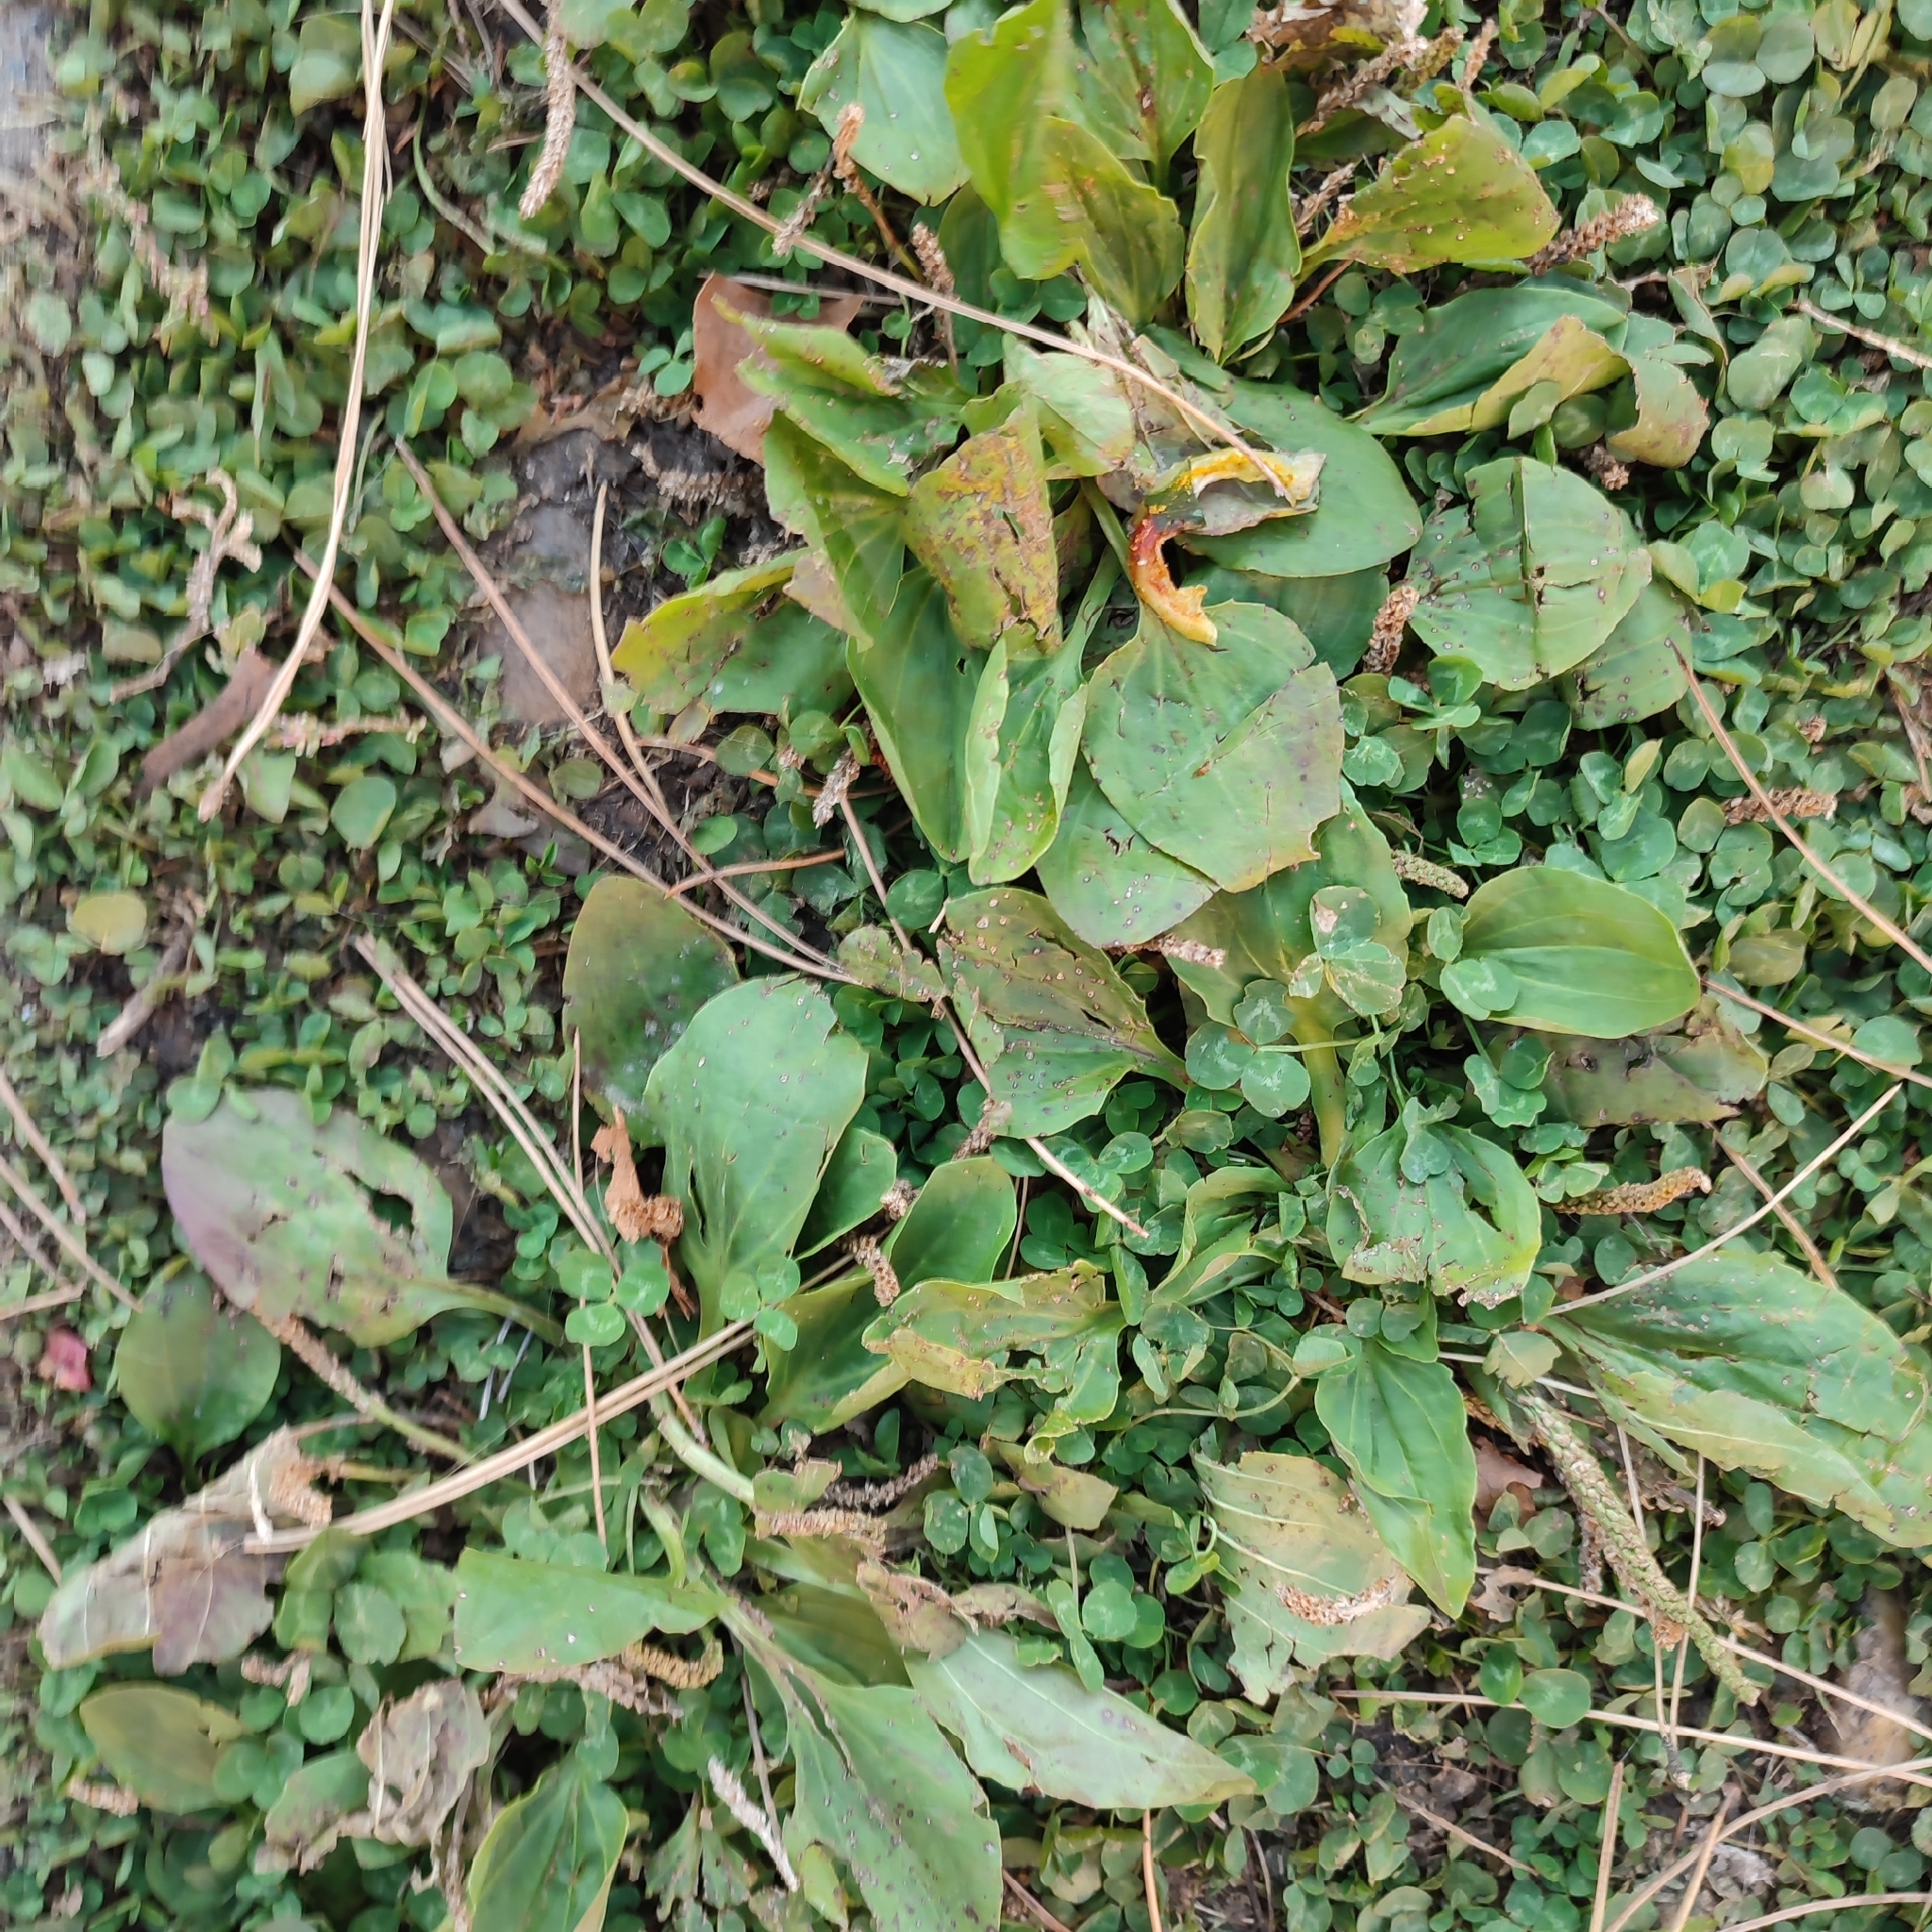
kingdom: Plantae
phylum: Tracheophyta
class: Magnoliopsida
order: Lamiales
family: Plantaginaceae
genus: Plantago
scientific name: Plantago major
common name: Common plantain
